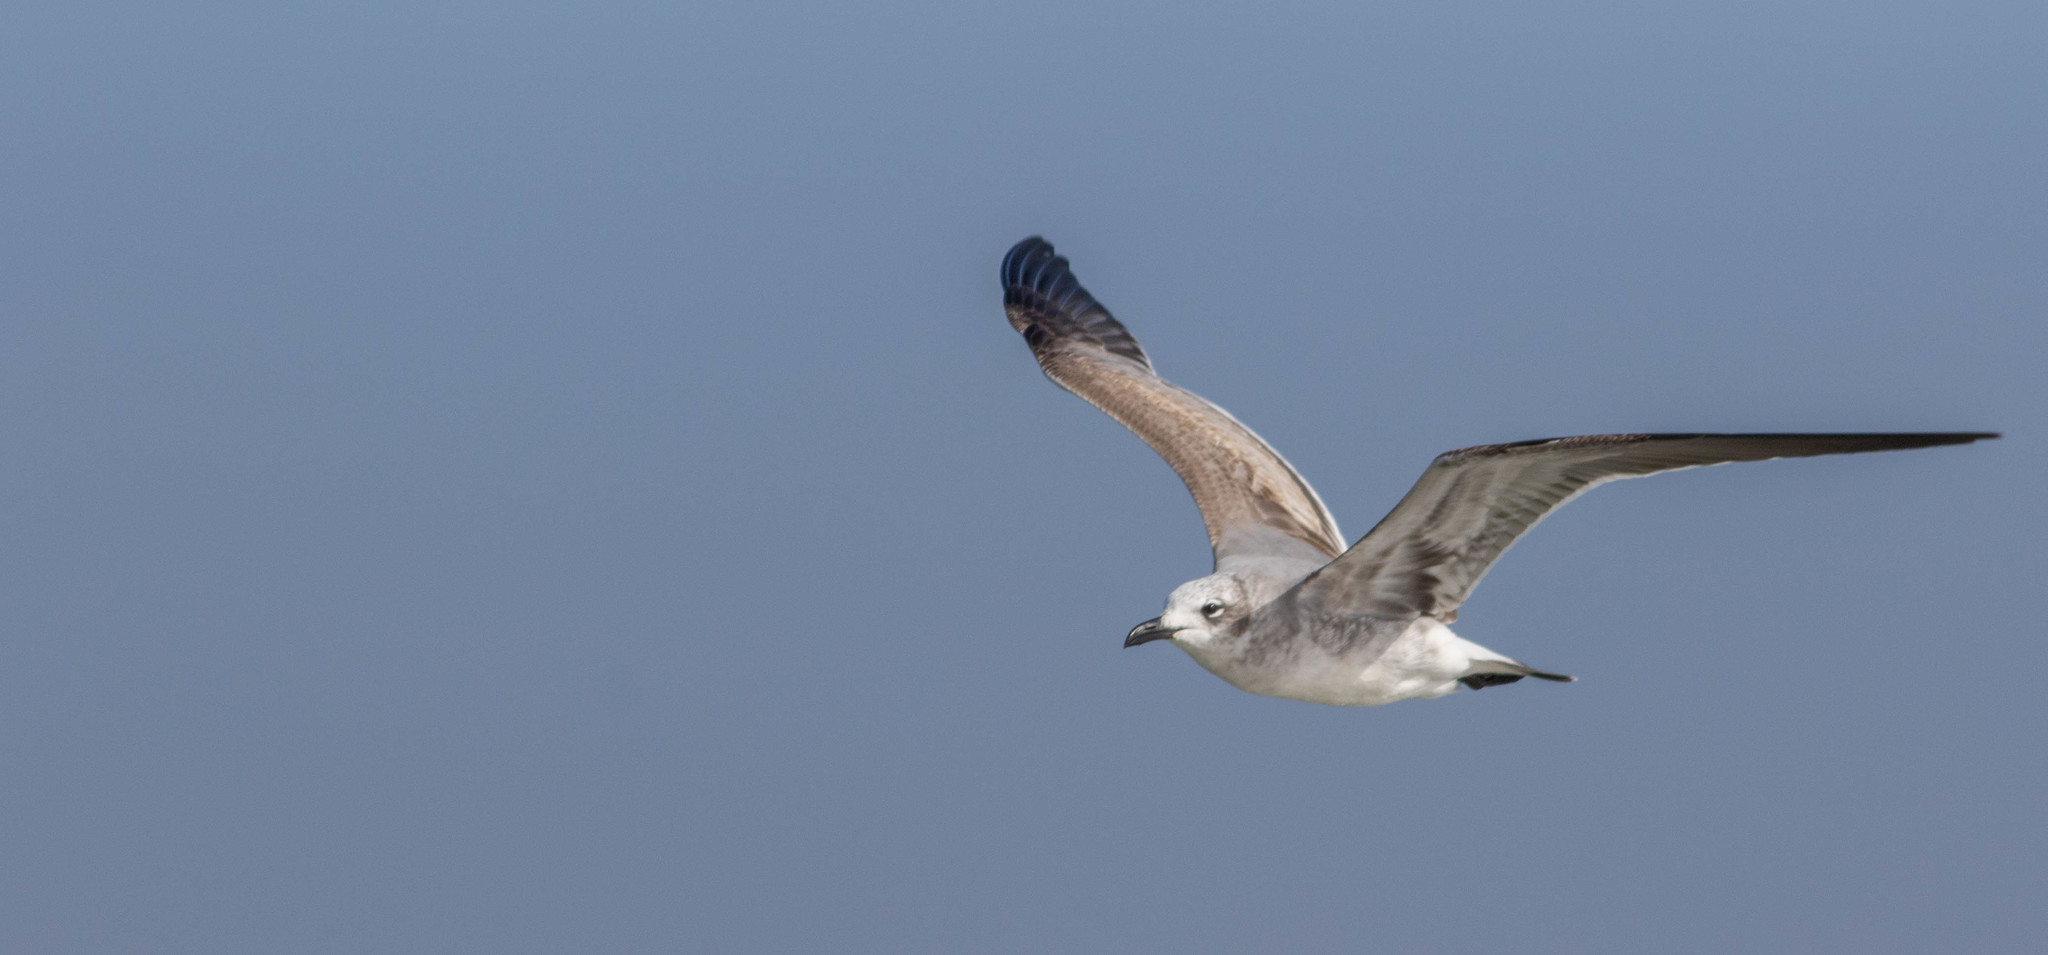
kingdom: Animalia
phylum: Chordata
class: Aves
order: Charadriiformes
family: Laridae
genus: Leucophaeus
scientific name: Leucophaeus atricilla
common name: Laughing gull
